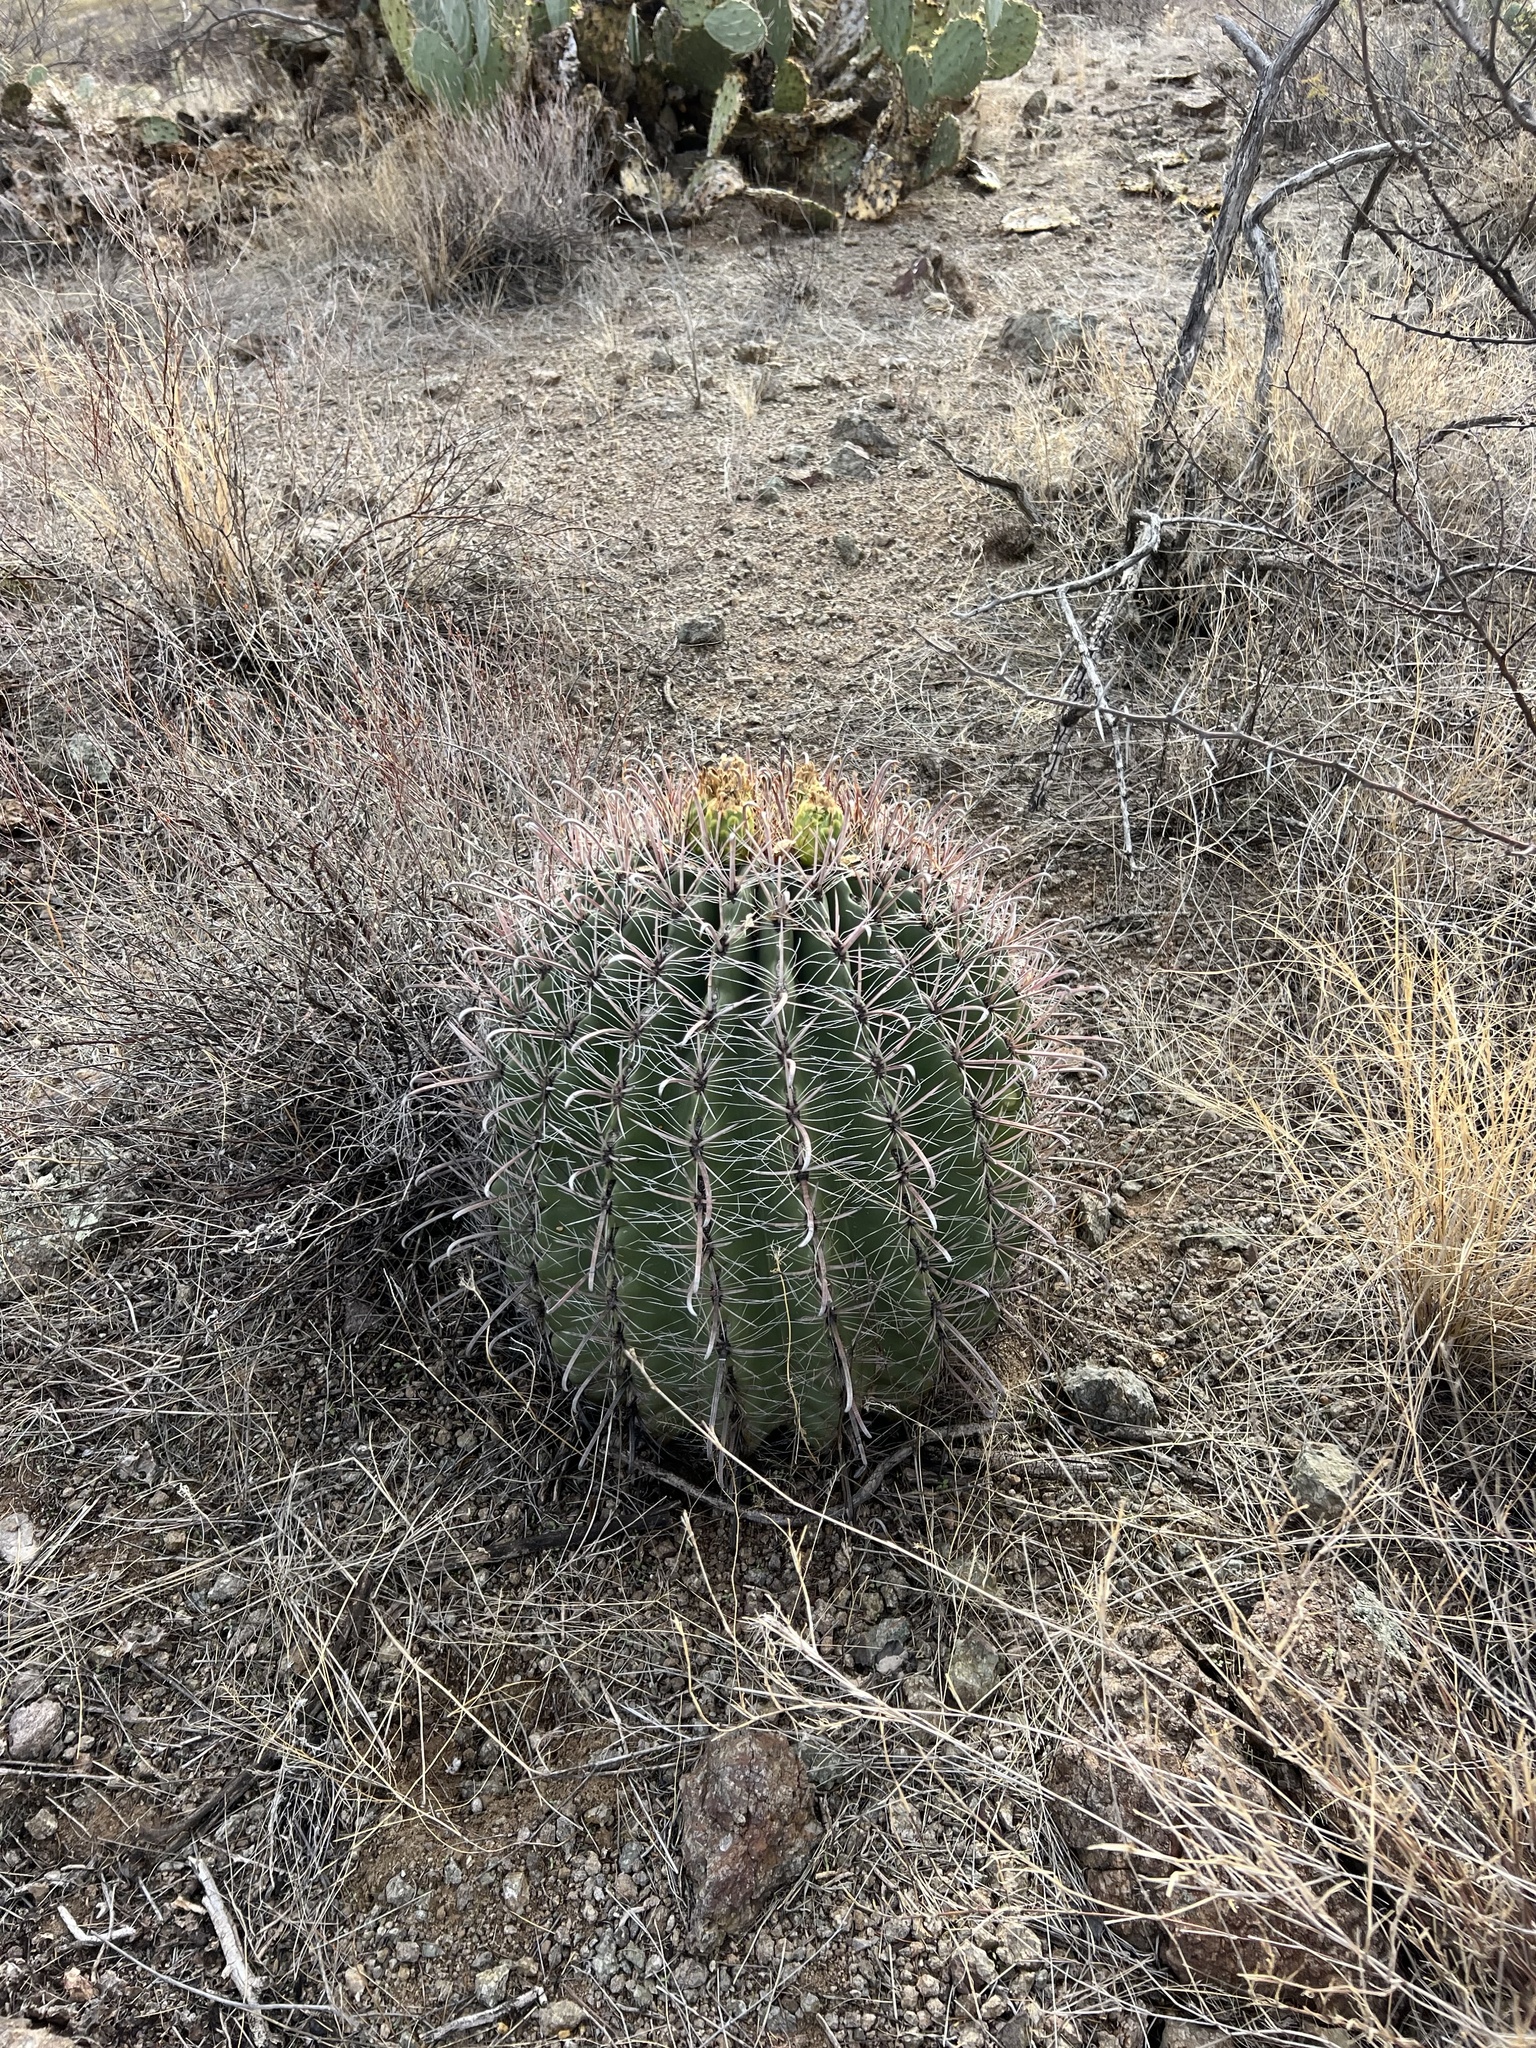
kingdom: Plantae
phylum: Tracheophyta
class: Magnoliopsida
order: Caryophyllales
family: Cactaceae
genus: Ferocactus
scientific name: Ferocactus wislizeni
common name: Candy barrel cactus
